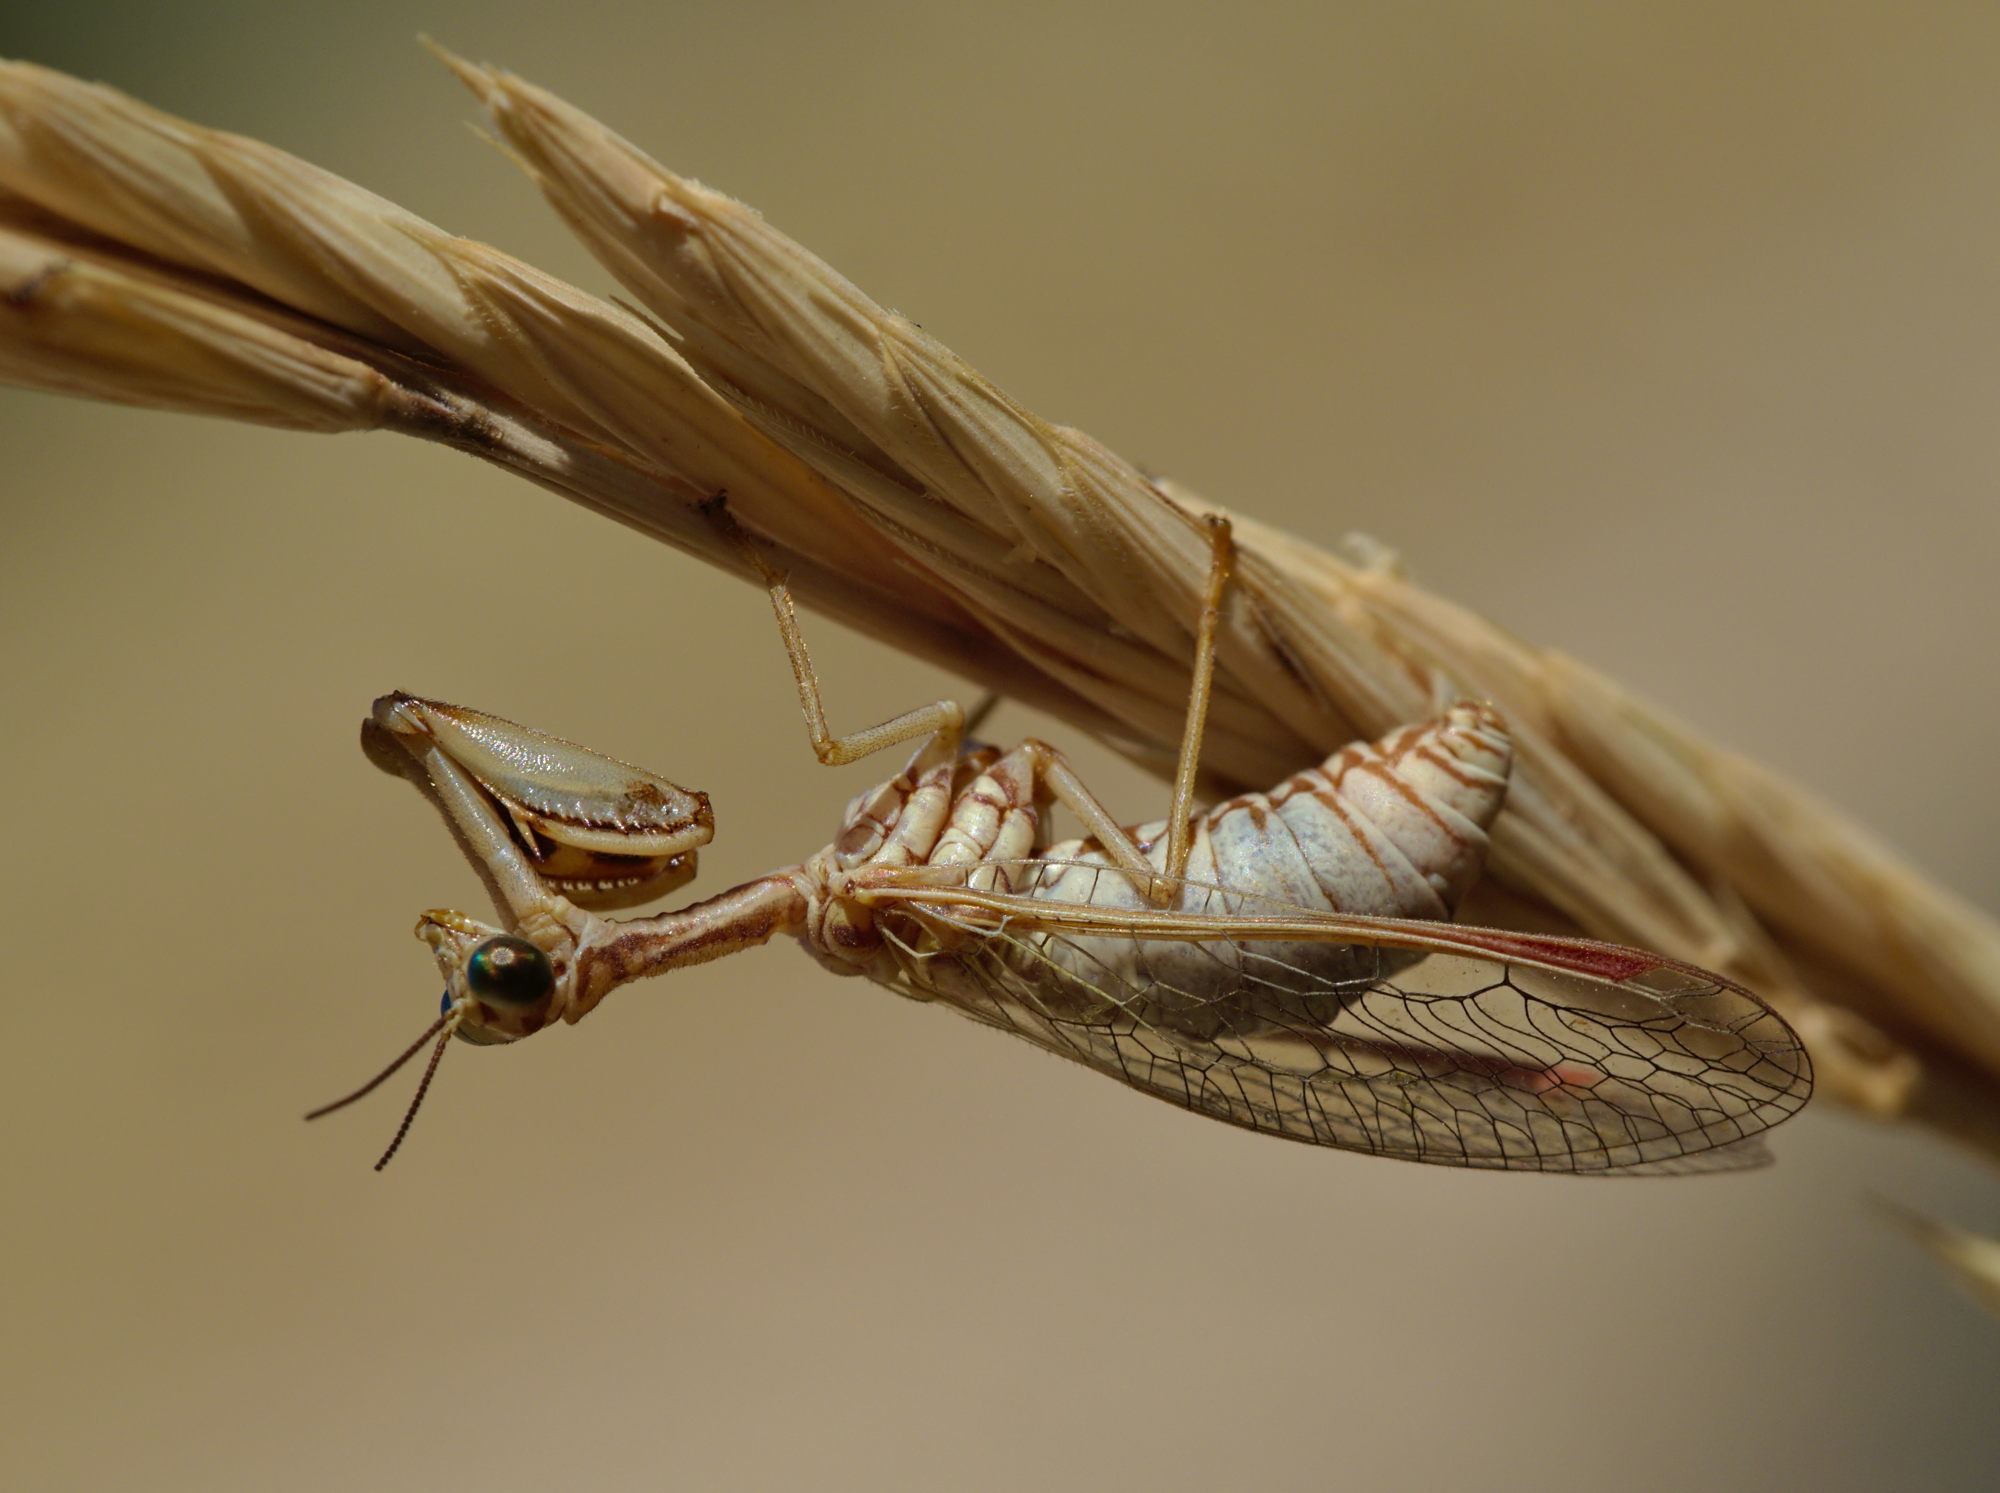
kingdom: Animalia
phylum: Arthropoda
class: Insecta
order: Neuroptera
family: Mantispidae
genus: Mantispa
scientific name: Mantispa aphavexelte
